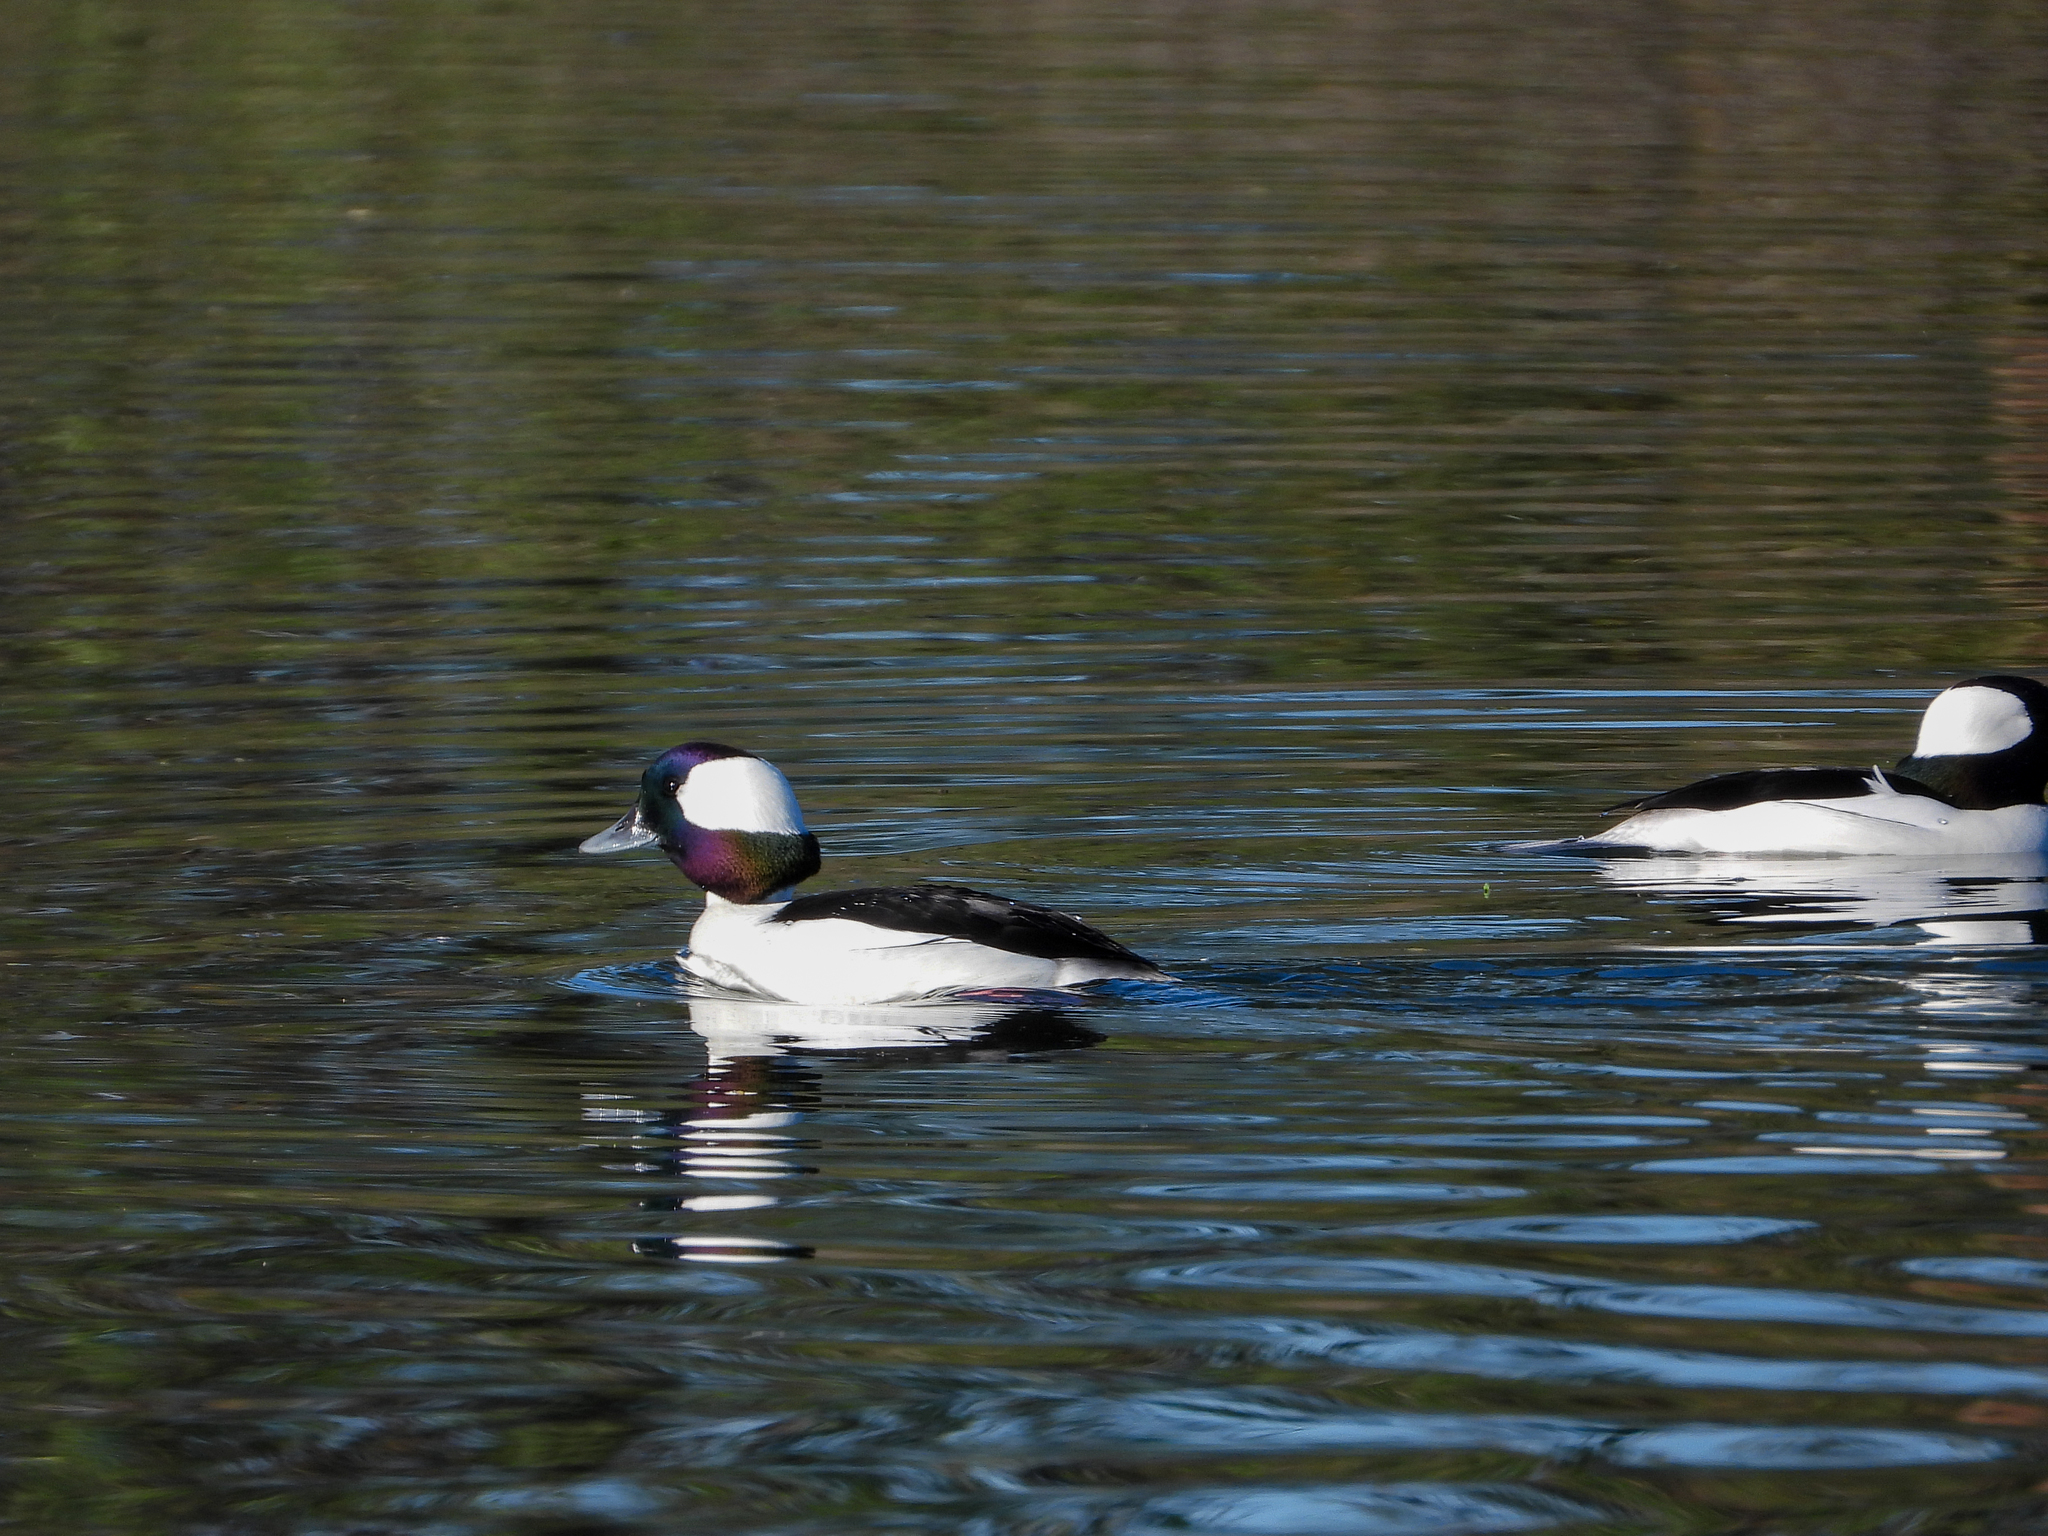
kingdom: Animalia
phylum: Chordata
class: Aves
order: Anseriformes
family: Anatidae
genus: Bucephala
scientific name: Bucephala albeola
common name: Bufflehead
